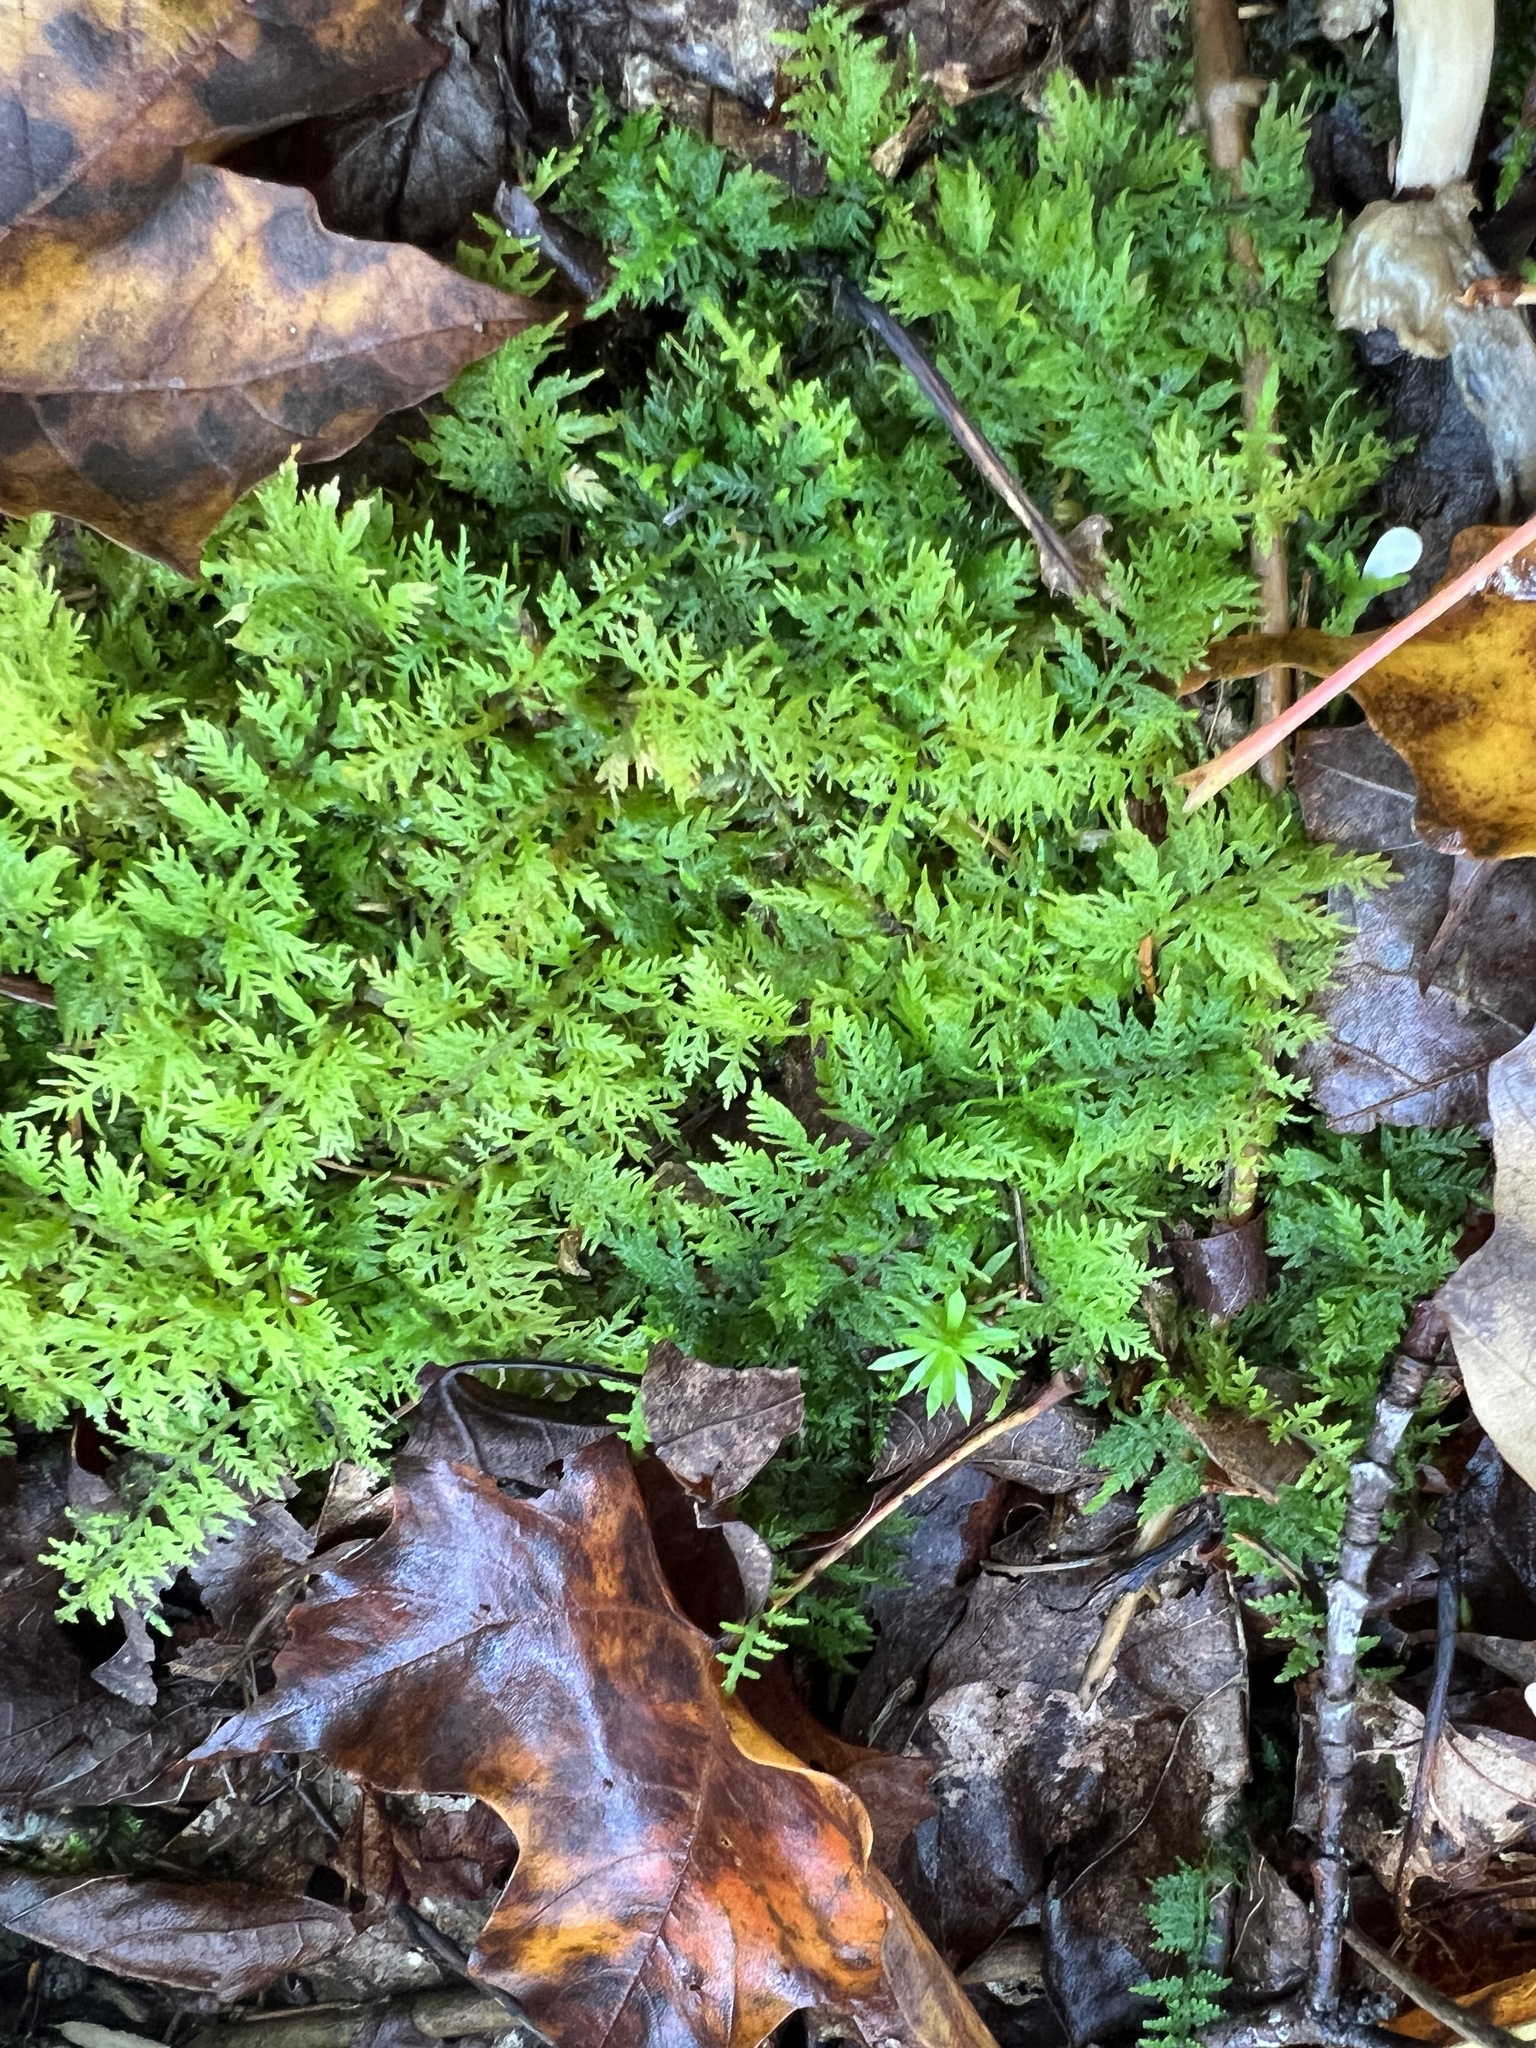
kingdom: Plantae
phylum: Bryophyta
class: Bryopsida
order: Hypnales
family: Thuidiaceae
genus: Thuidium
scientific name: Thuidium delicatulum
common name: Delicate fern moss
